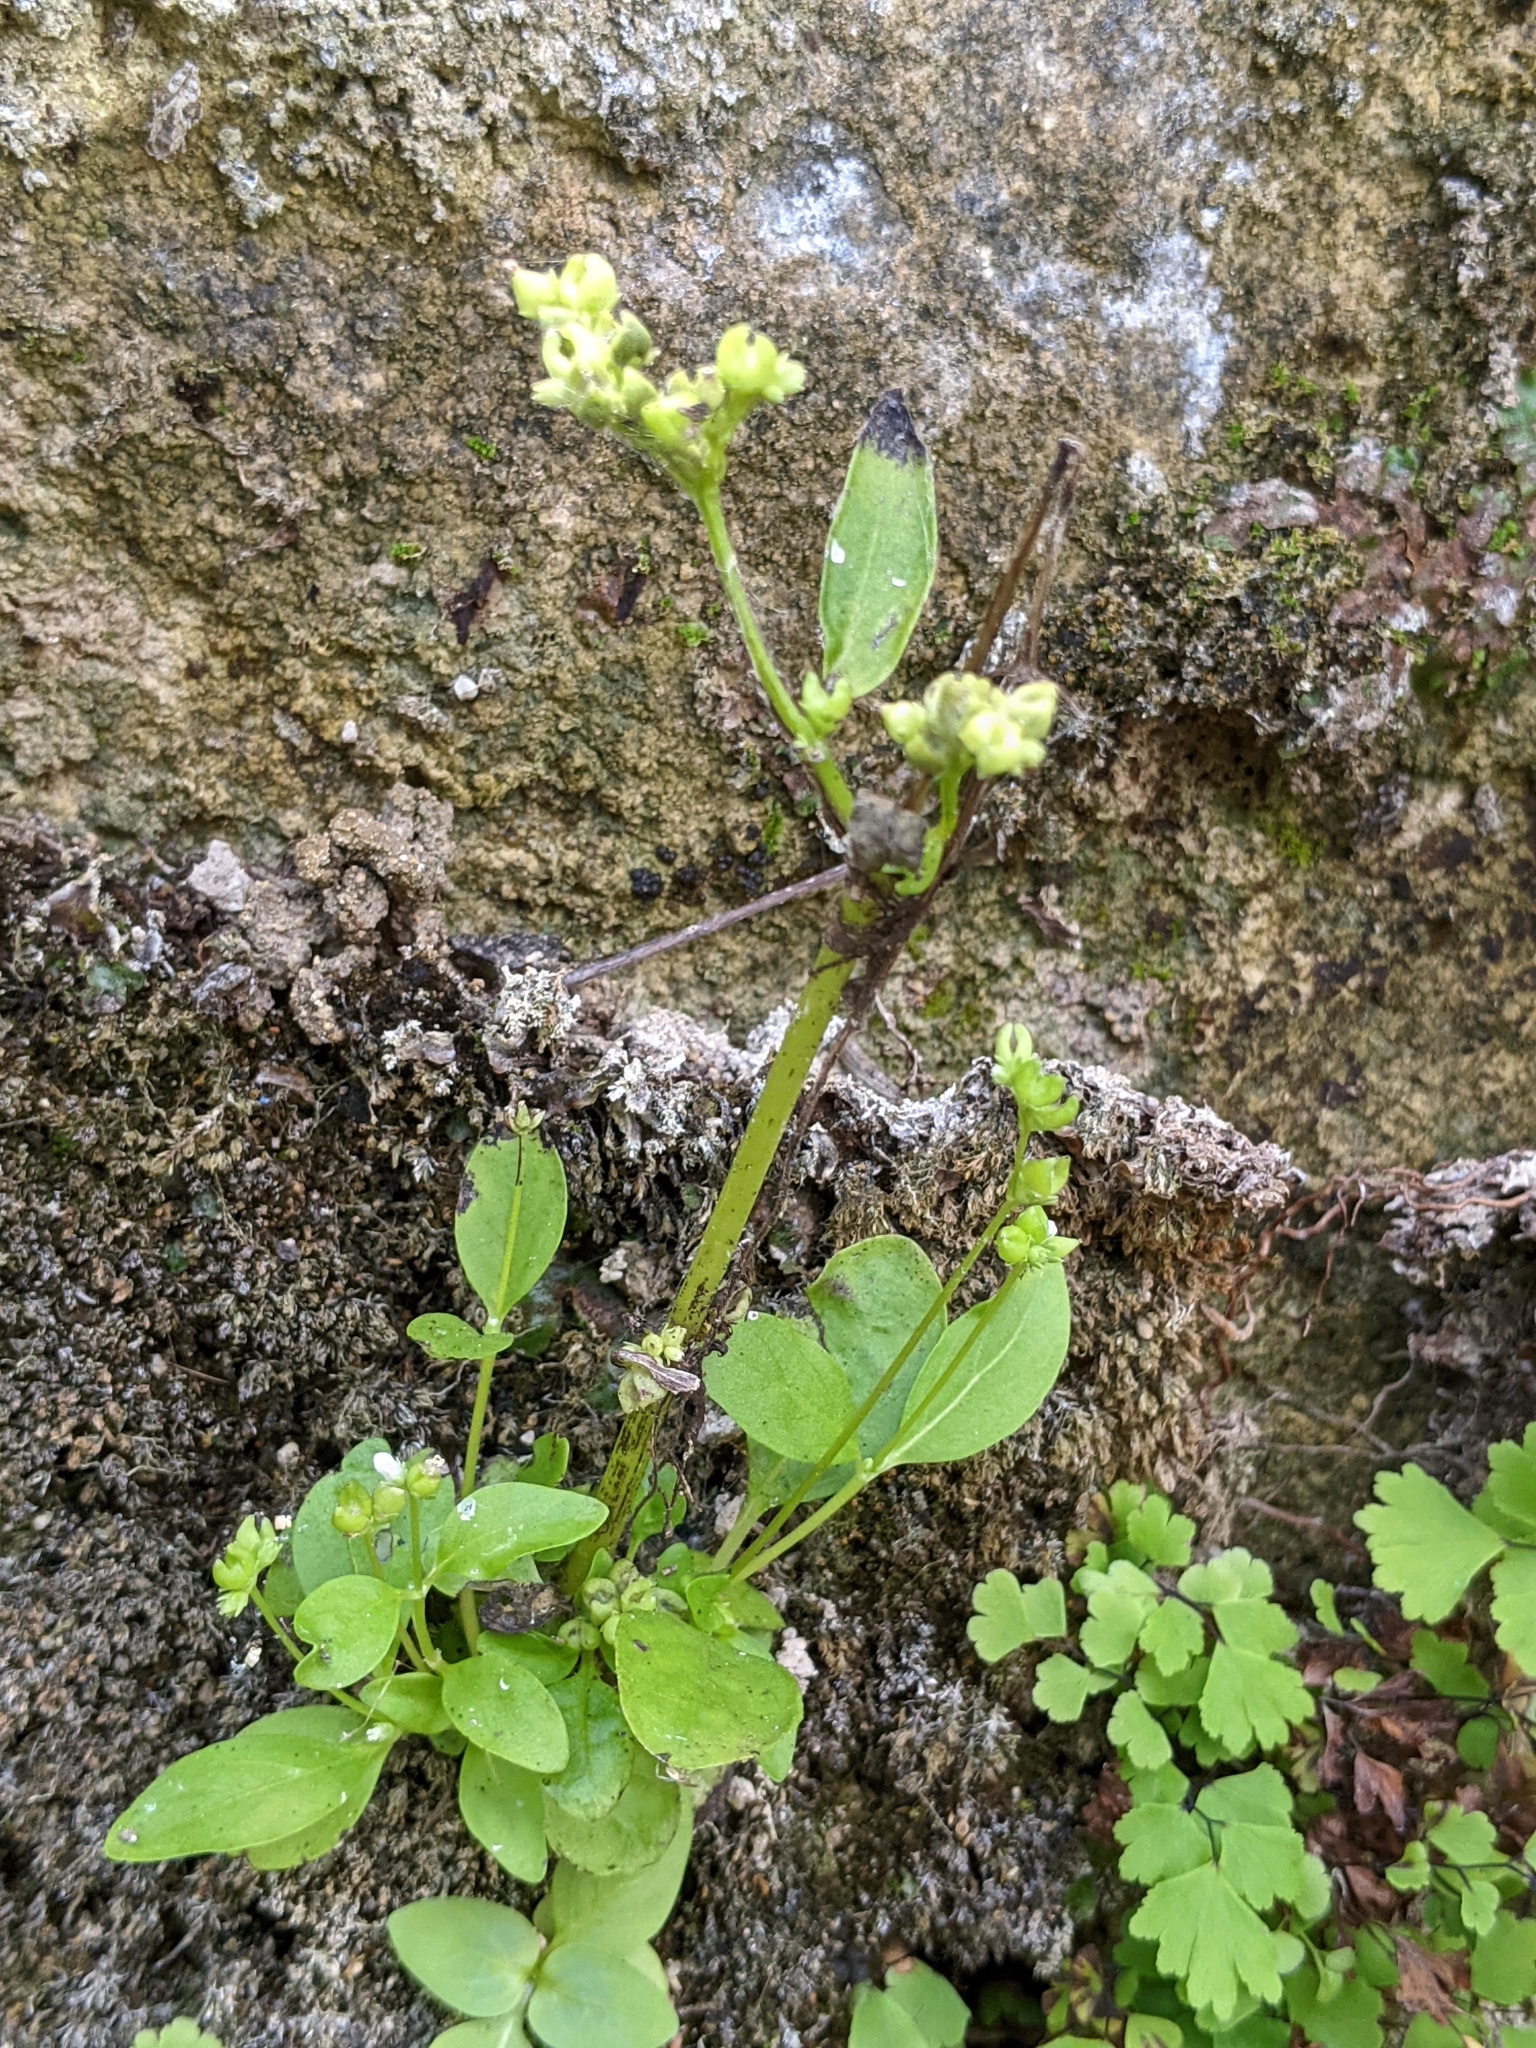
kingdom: Plantae
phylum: Tracheophyta
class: Magnoliopsida
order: Gentianales
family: Loganiaceae
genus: Mitreola
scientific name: Mitreola petiolata
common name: Lax hornpod
